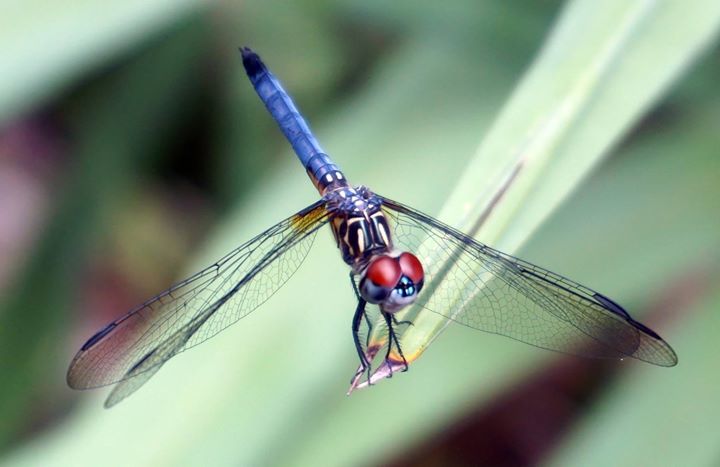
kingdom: Animalia
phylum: Arthropoda
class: Insecta
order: Odonata
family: Libellulidae
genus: Pachydiplax
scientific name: Pachydiplax longipennis
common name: Blue dasher
